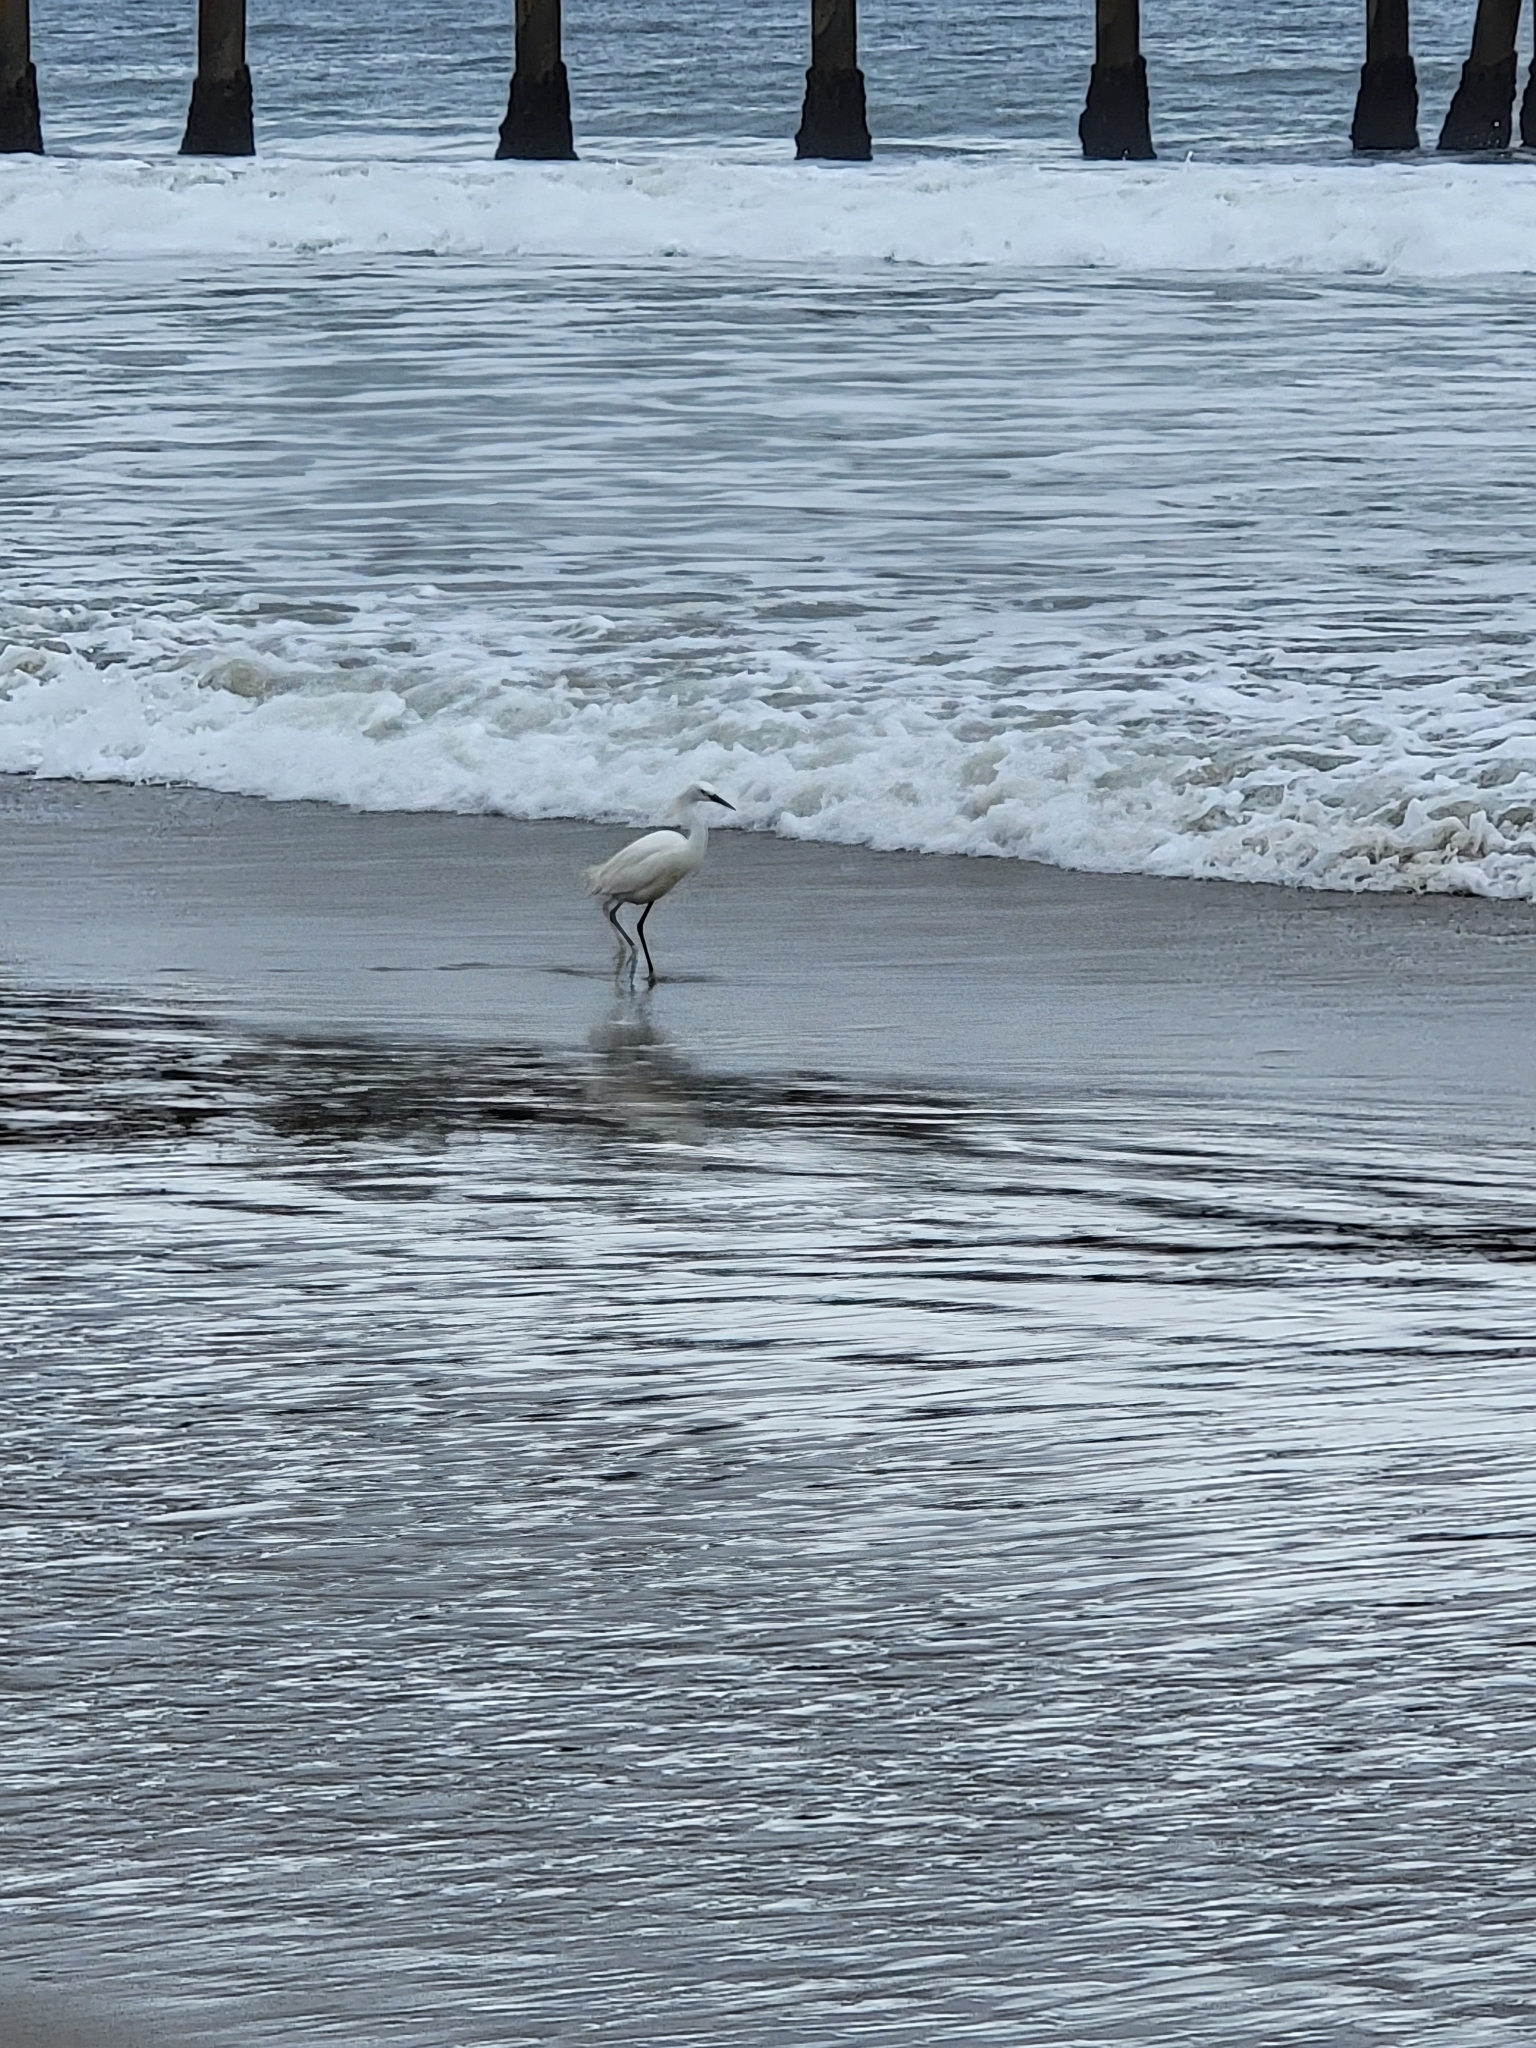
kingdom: Animalia
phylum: Chordata
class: Aves
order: Pelecaniformes
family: Ardeidae
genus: Egretta
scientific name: Egretta thula
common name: Snowy egret
